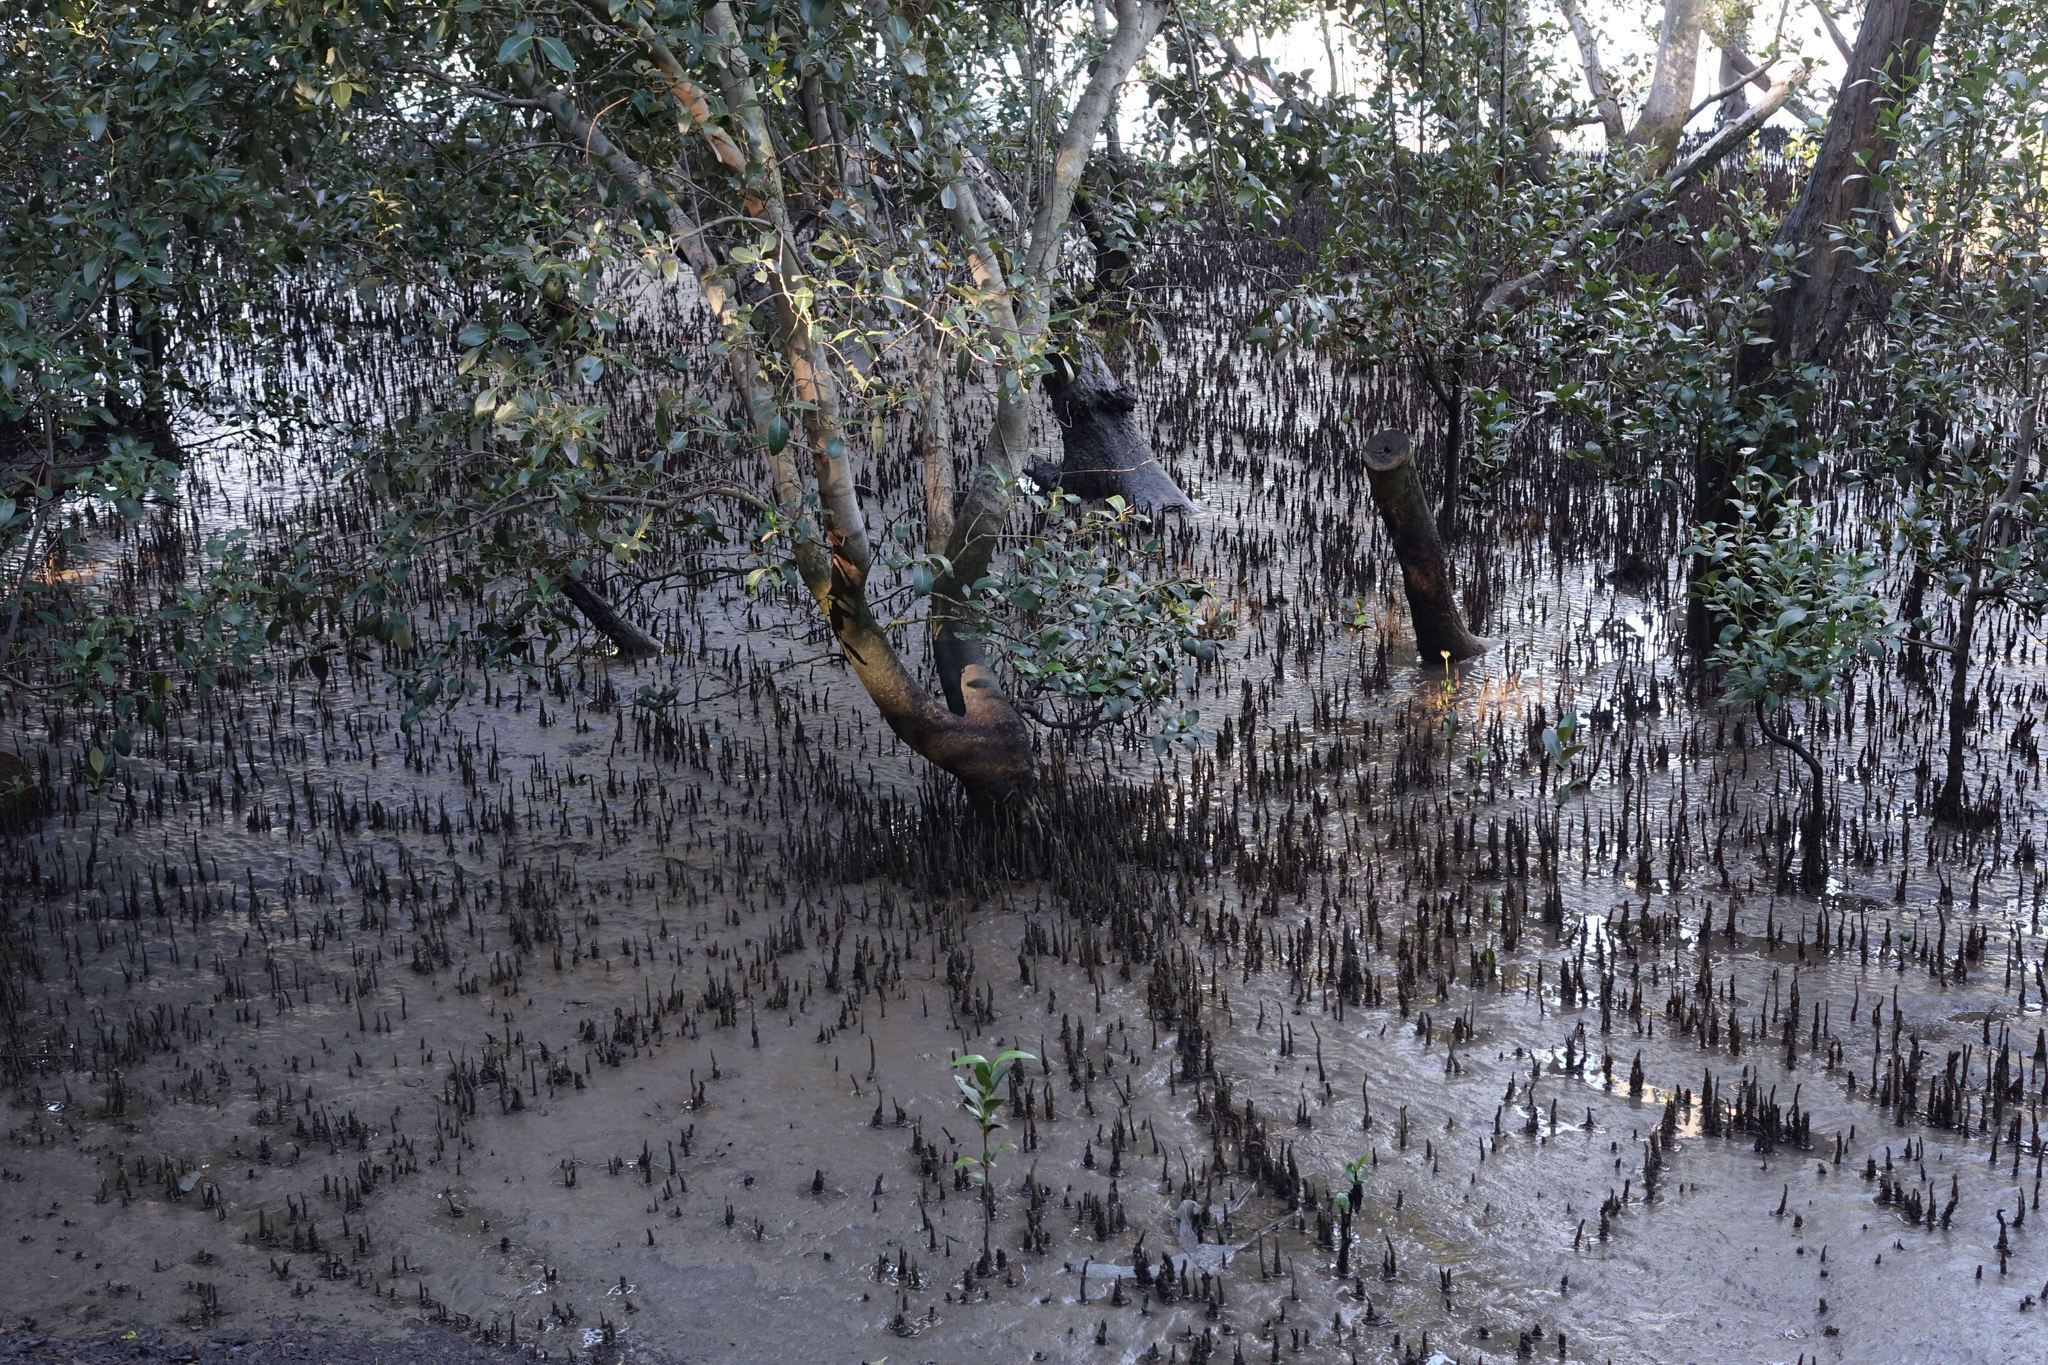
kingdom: Plantae
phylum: Tracheophyta
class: Magnoliopsida
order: Lamiales
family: Acanthaceae
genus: Avicennia
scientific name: Avicennia marina
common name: Gray mangrove
